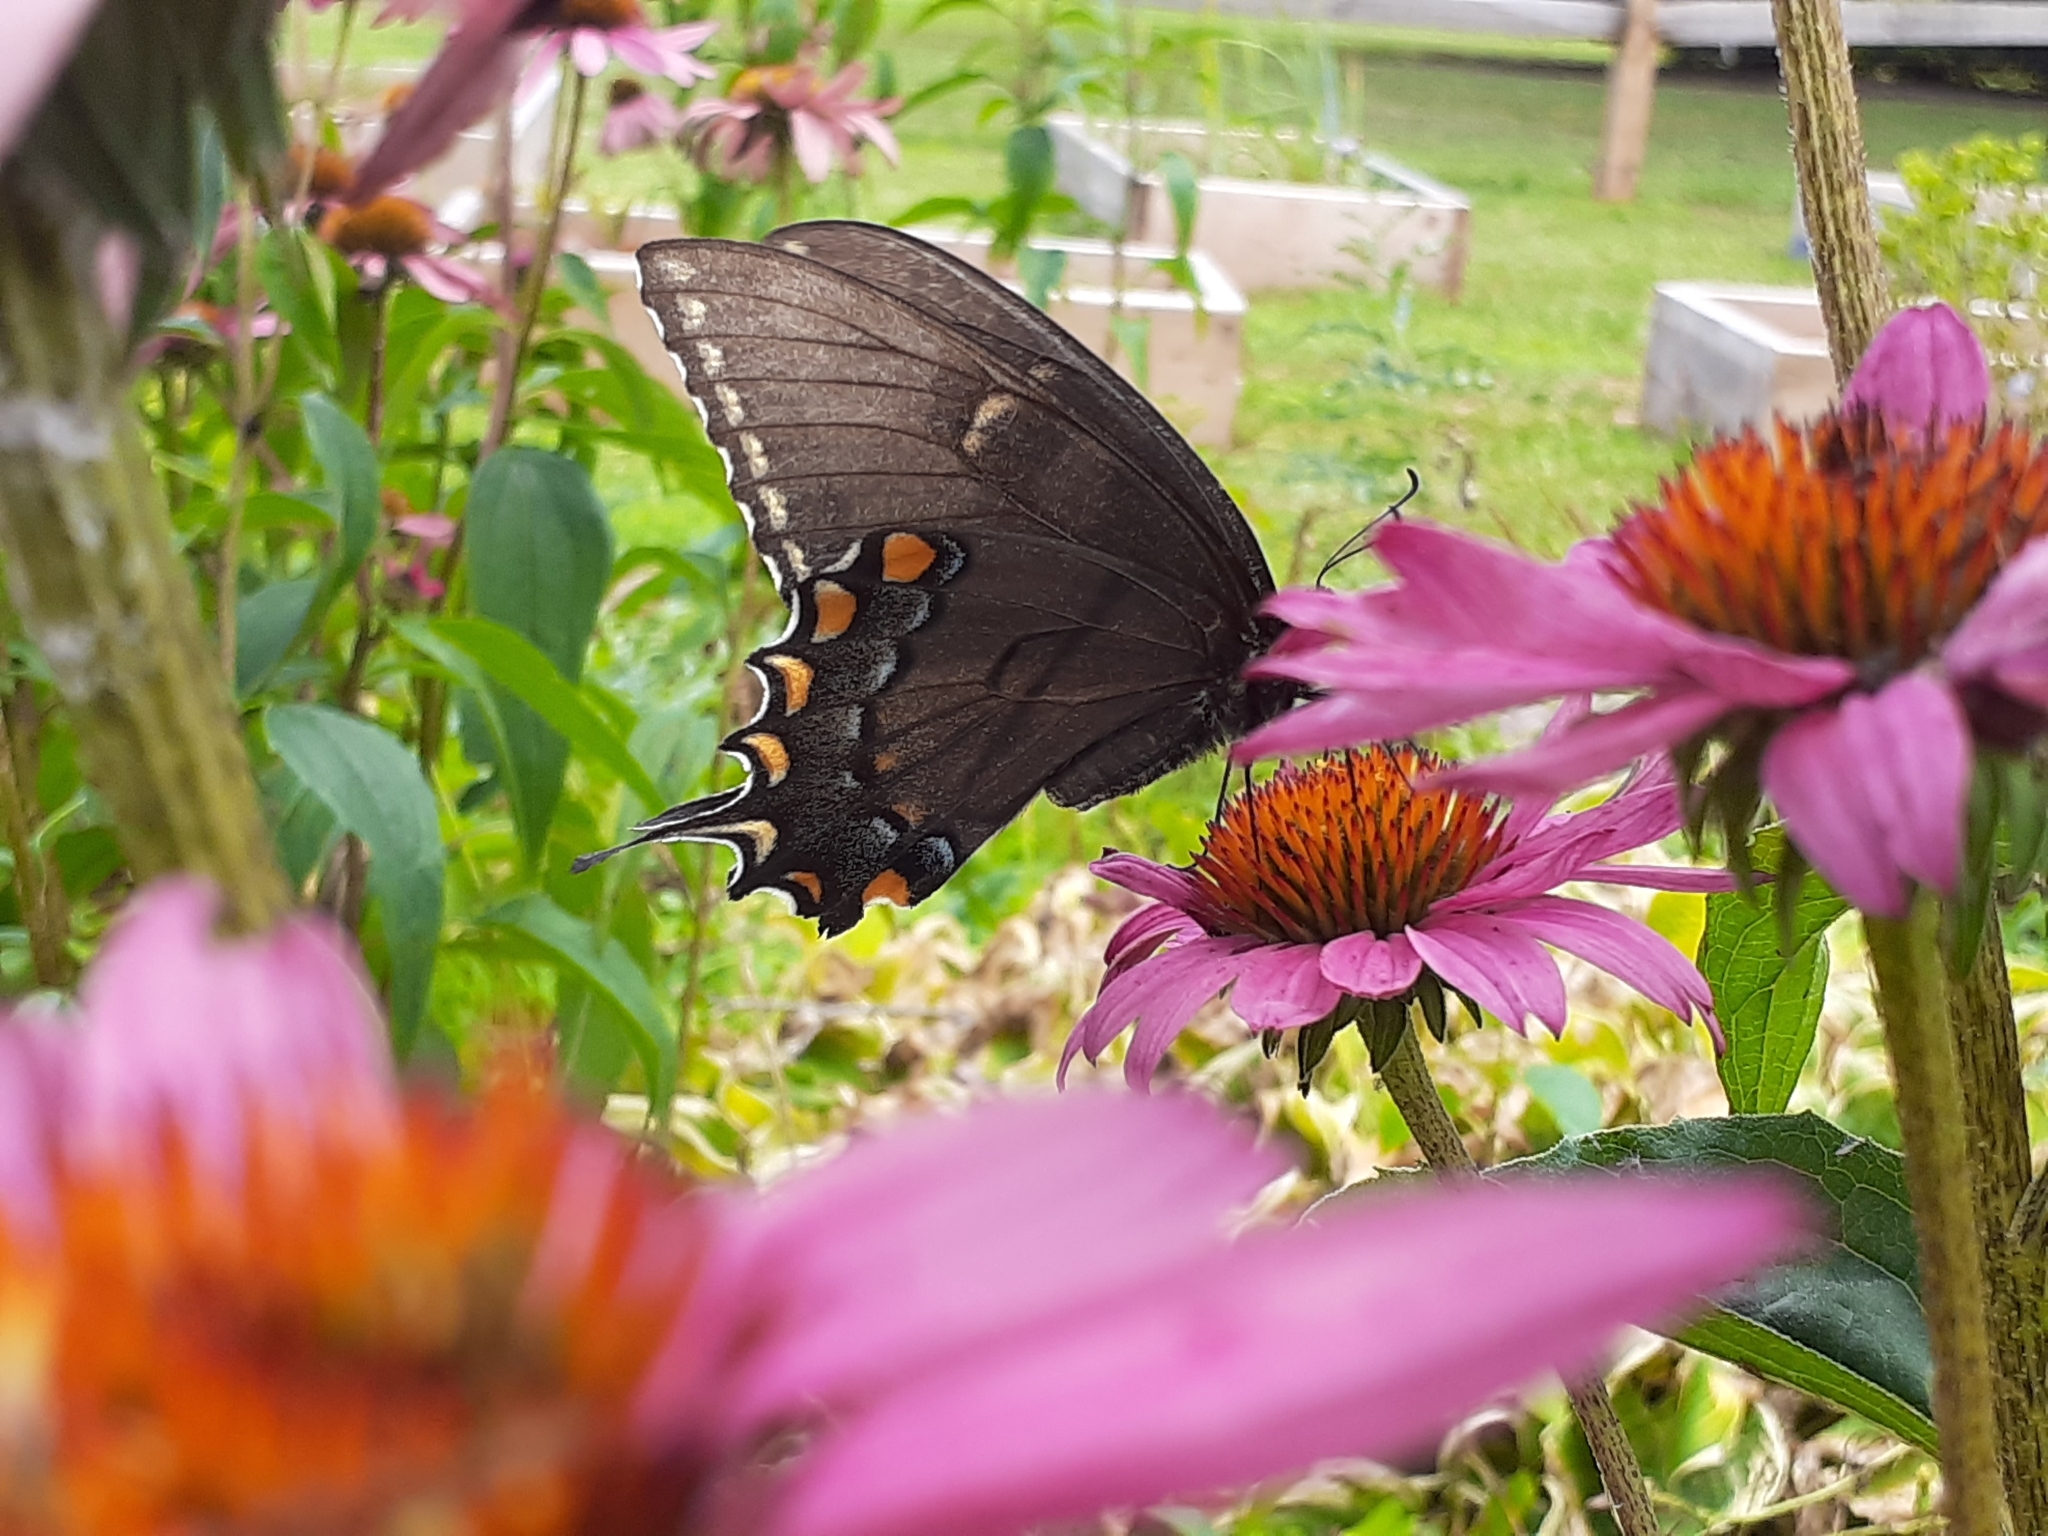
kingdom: Animalia
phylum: Arthropoda
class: Insecta
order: Lepidoptera
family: Papilionidae
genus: Papilio
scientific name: Papilio glaucus
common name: Tiger swallowtail
